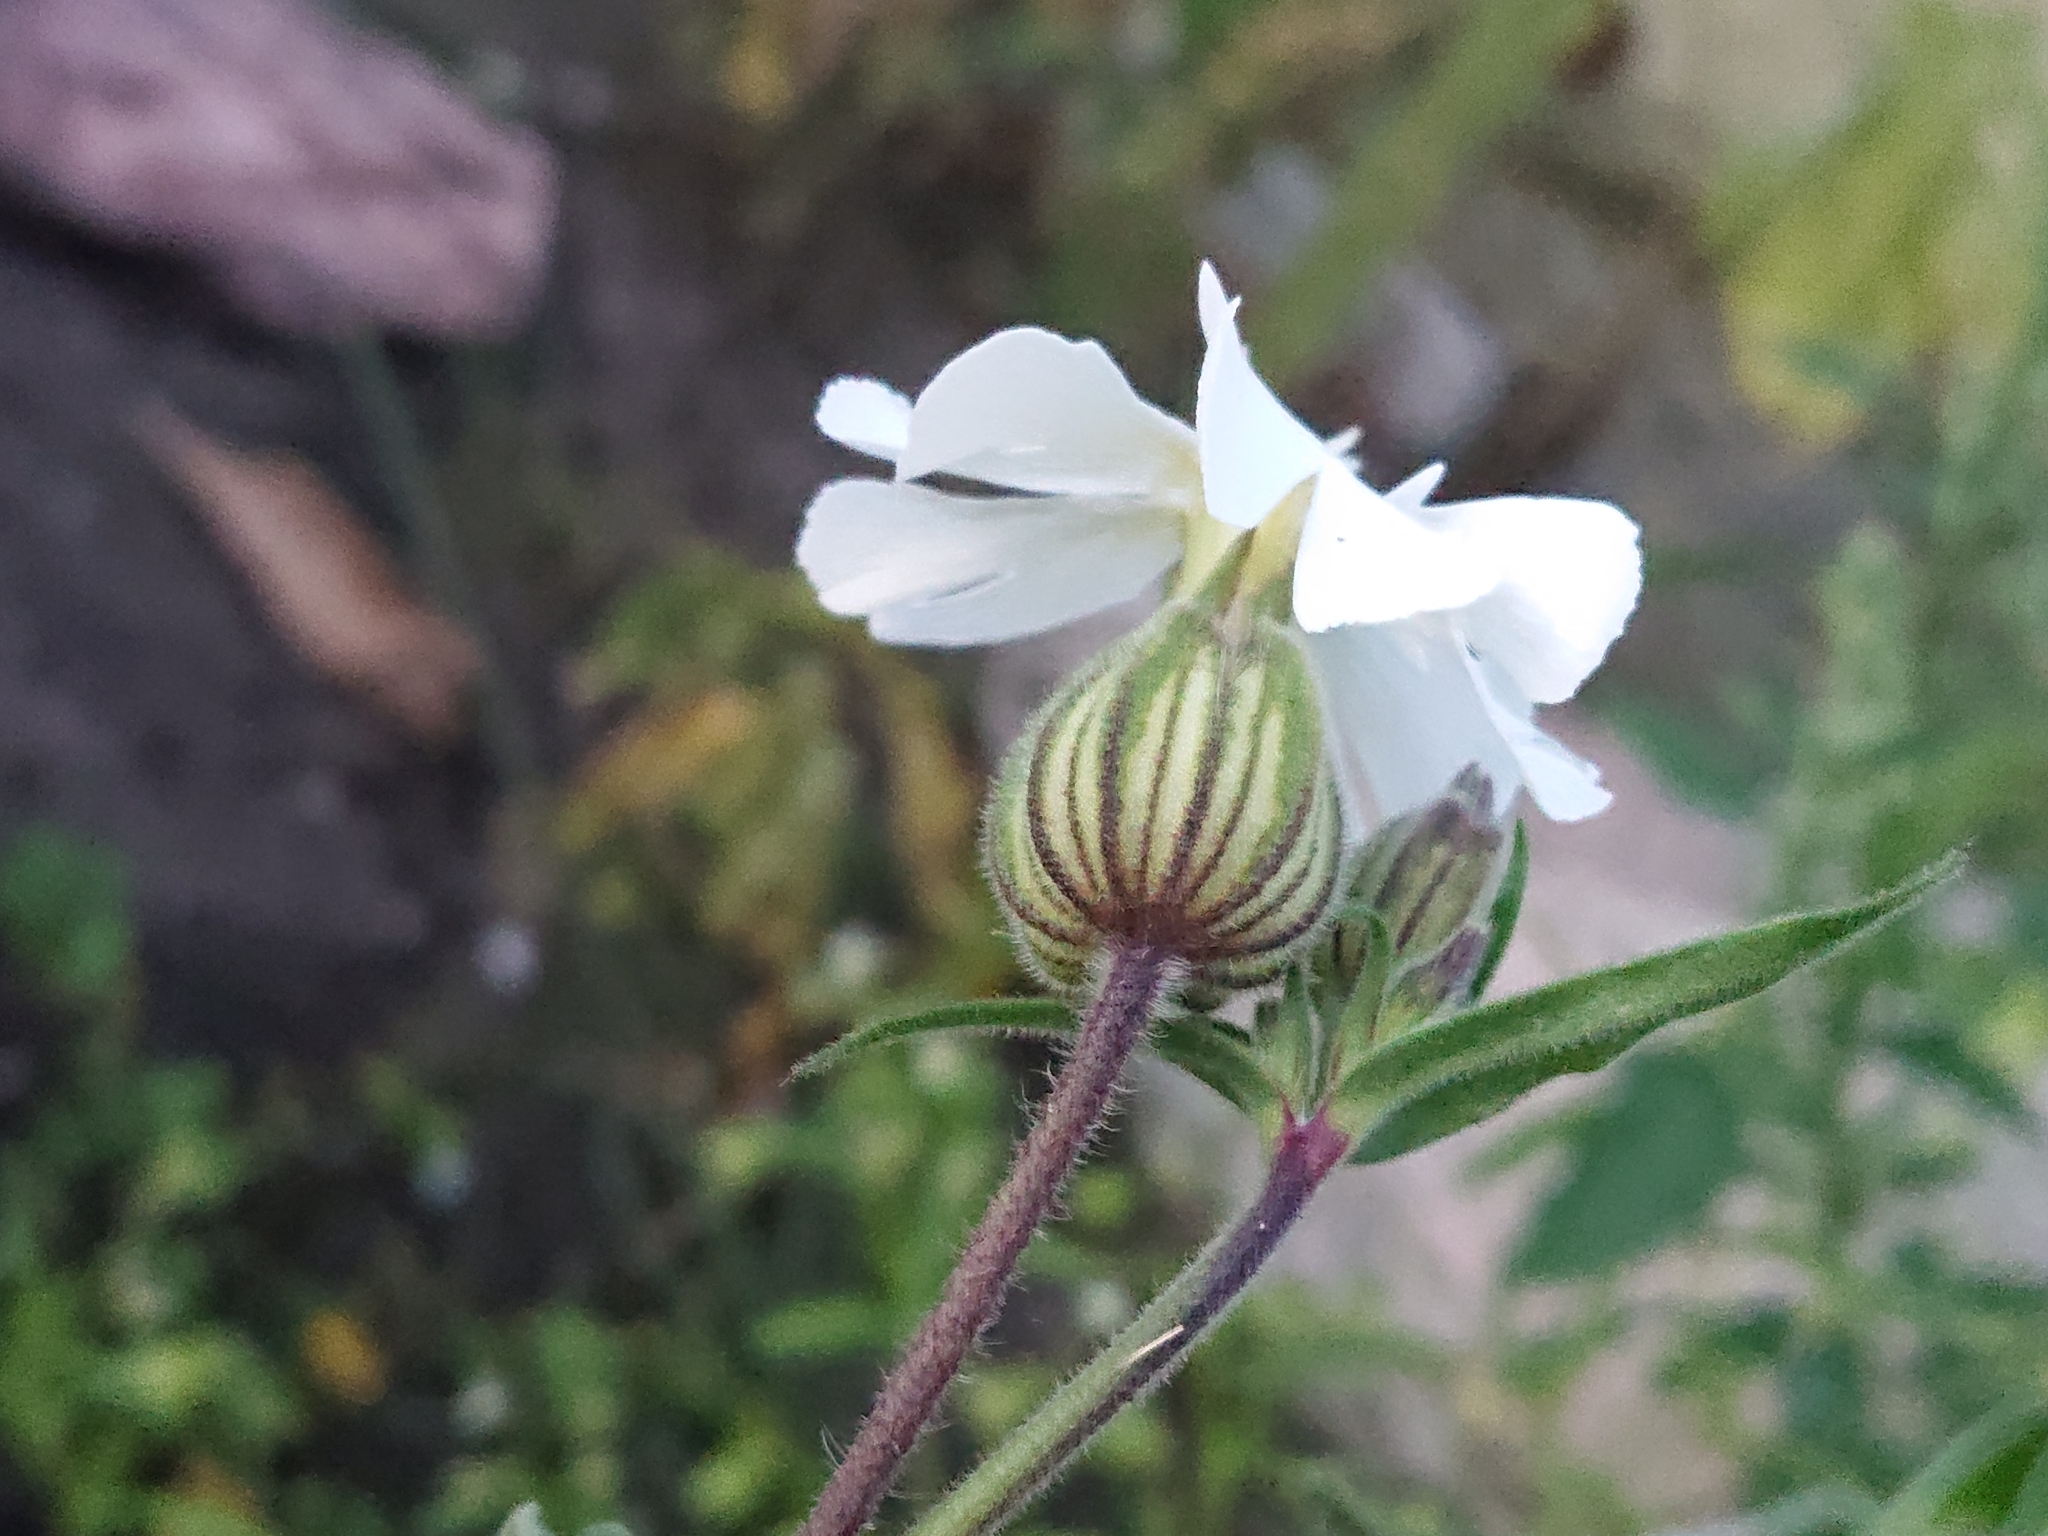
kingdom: Plantae
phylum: Tracheophyta
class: Magnoliopsida
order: Caryophyllales
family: Caryophyllaceae
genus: Silene
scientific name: Silene latifolia
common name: White campion
